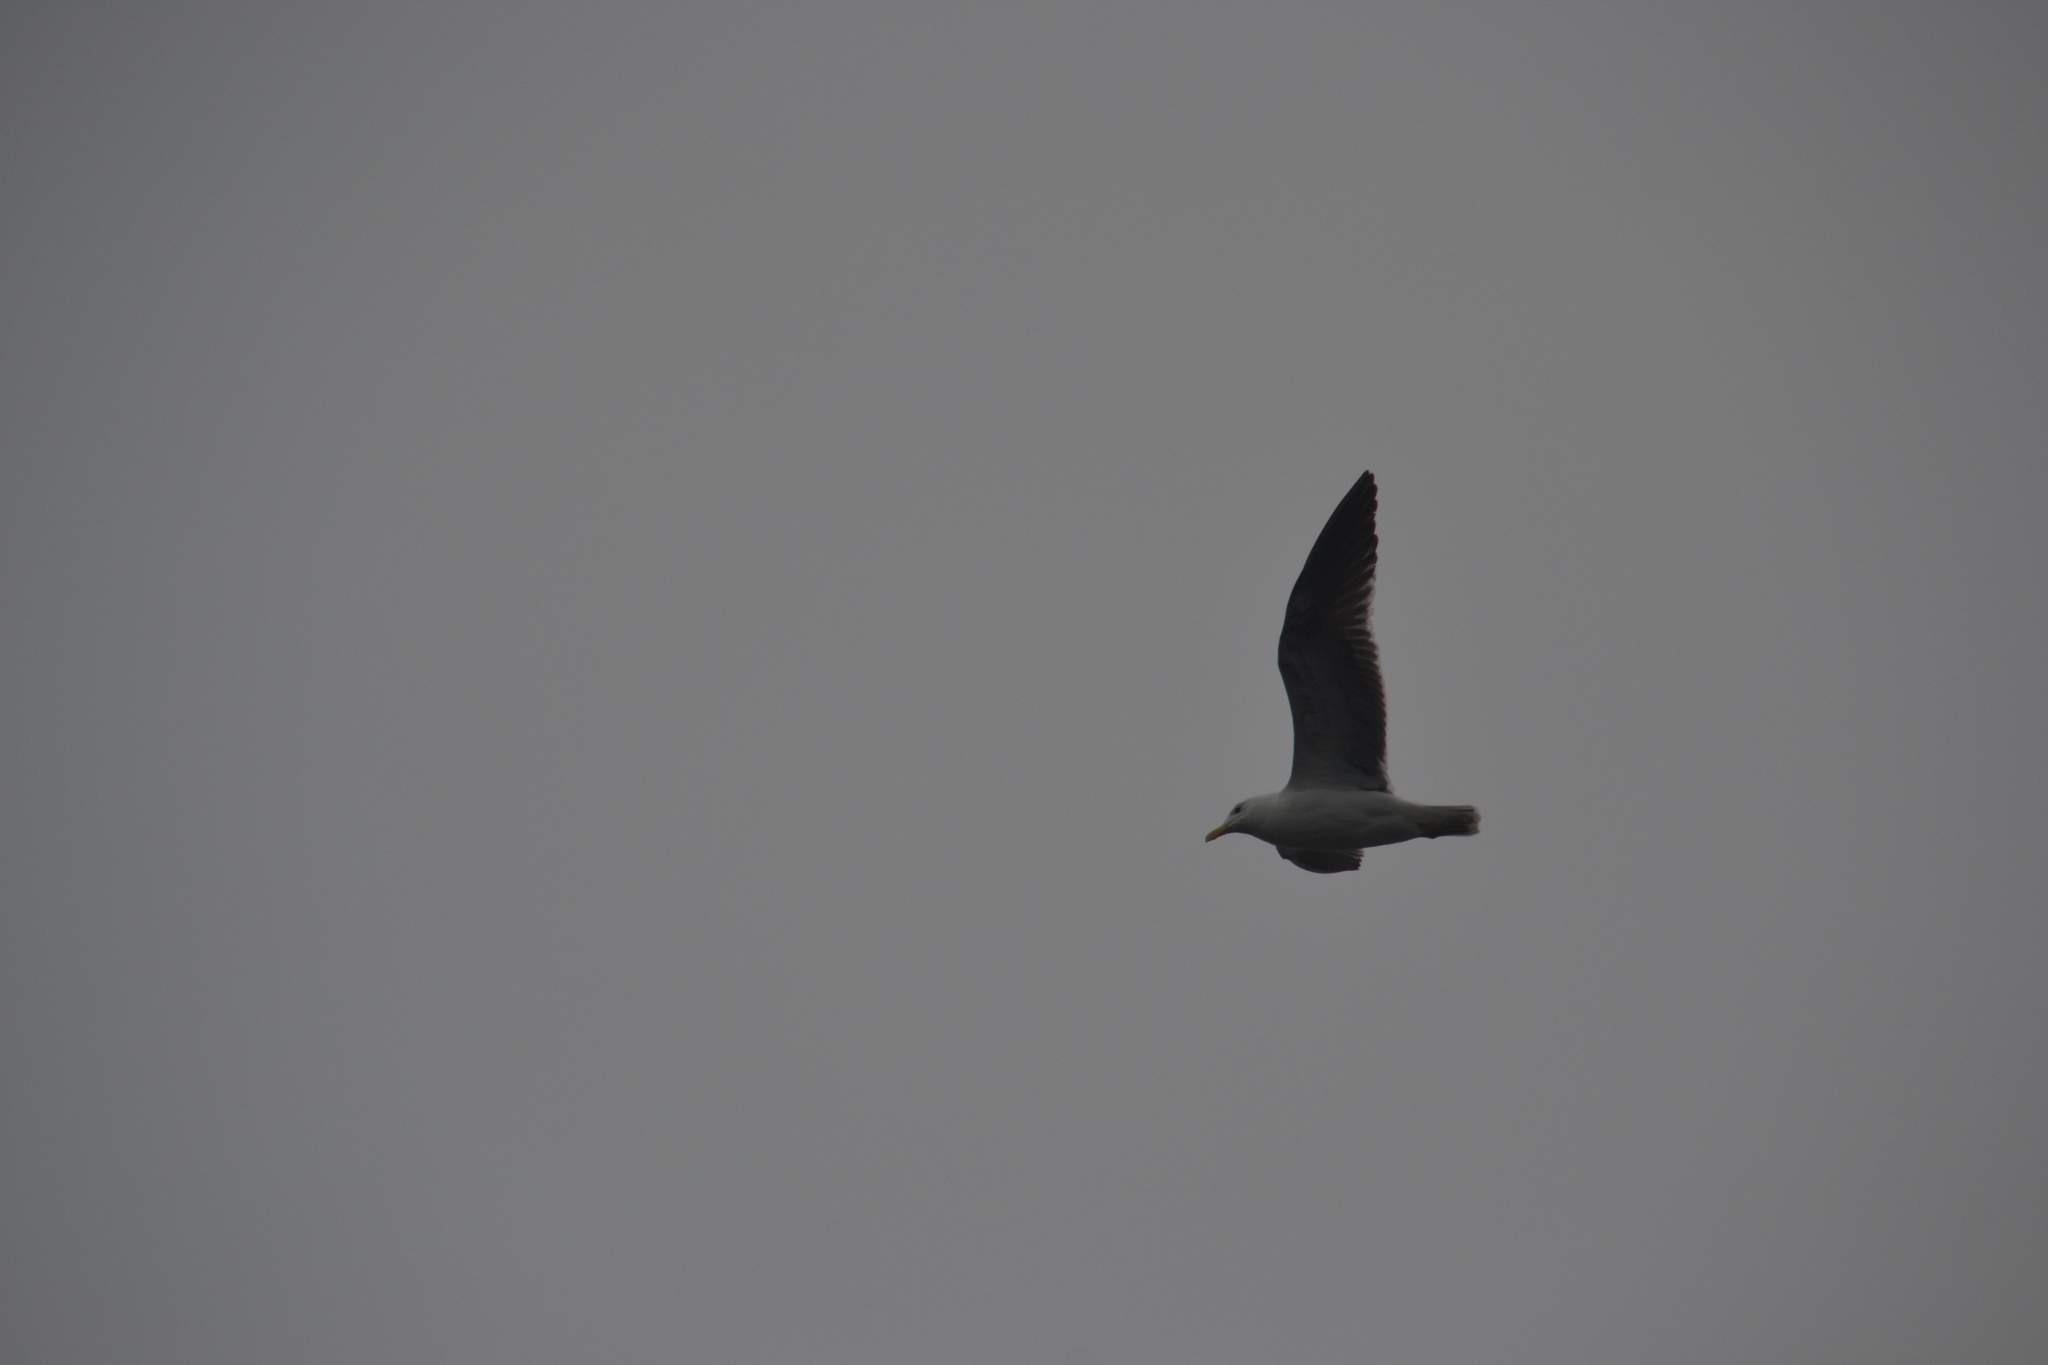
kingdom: Animalia
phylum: Chordata
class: Aves
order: Charadriiformes
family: Laridae
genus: Larus
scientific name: Larus belcheri
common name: Belcher's gull
